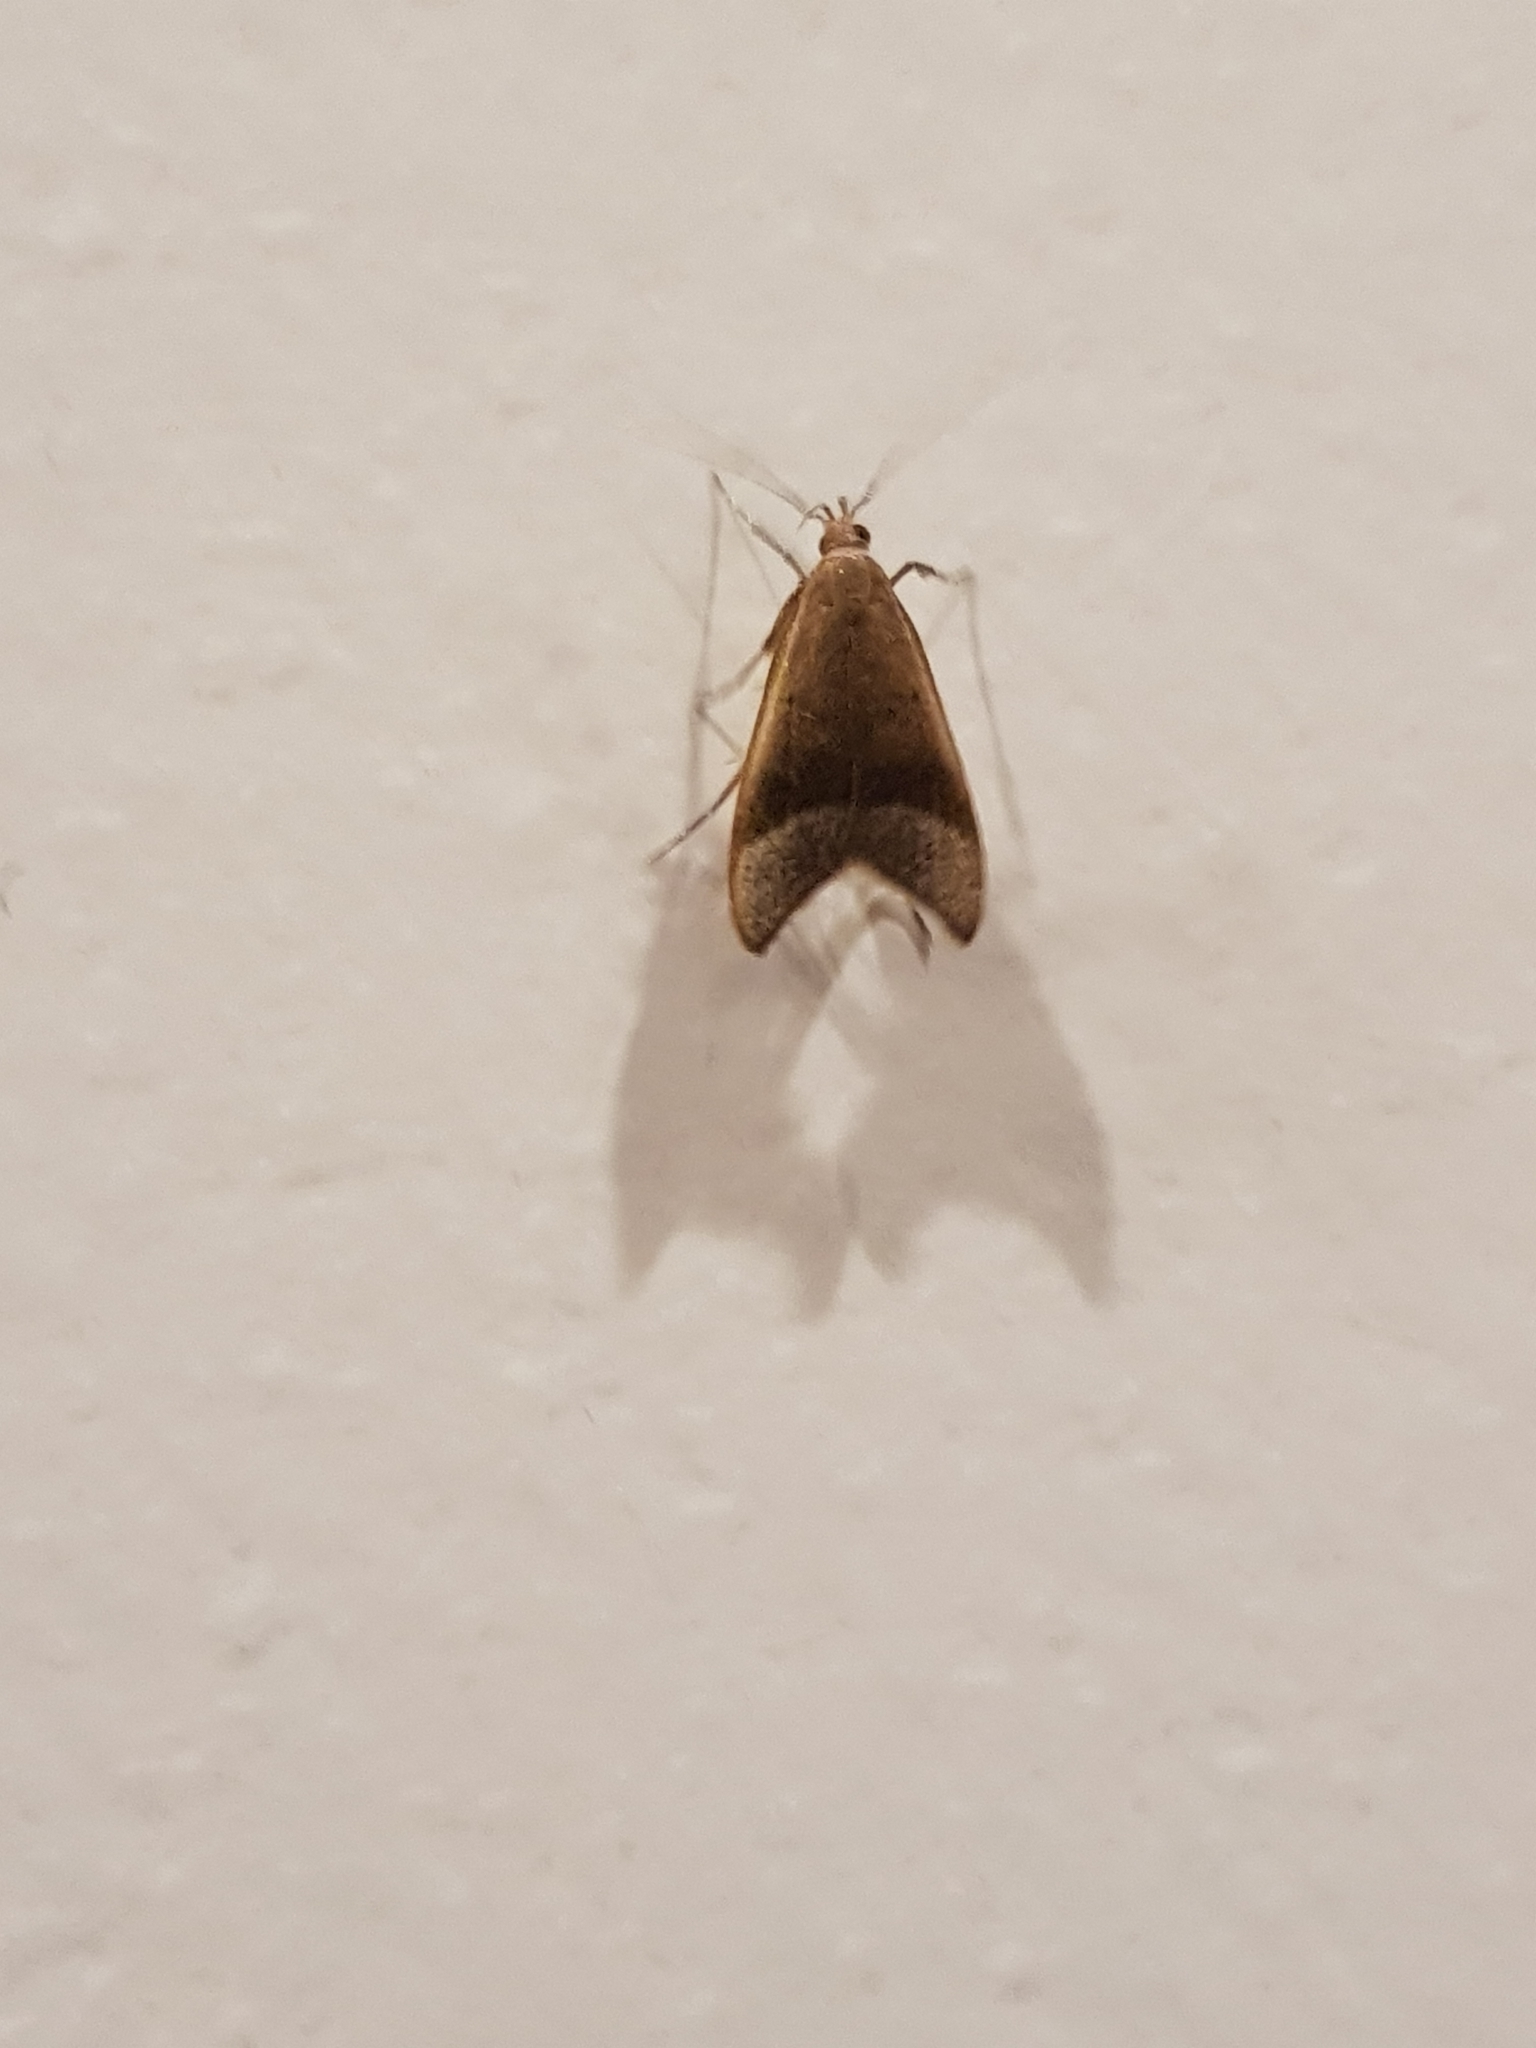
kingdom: Animalia
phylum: Arthropoda
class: Insecta
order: Lepidoptera
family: Oecophoridae
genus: Gymnobathra
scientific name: Gymnobathra hyetodes
